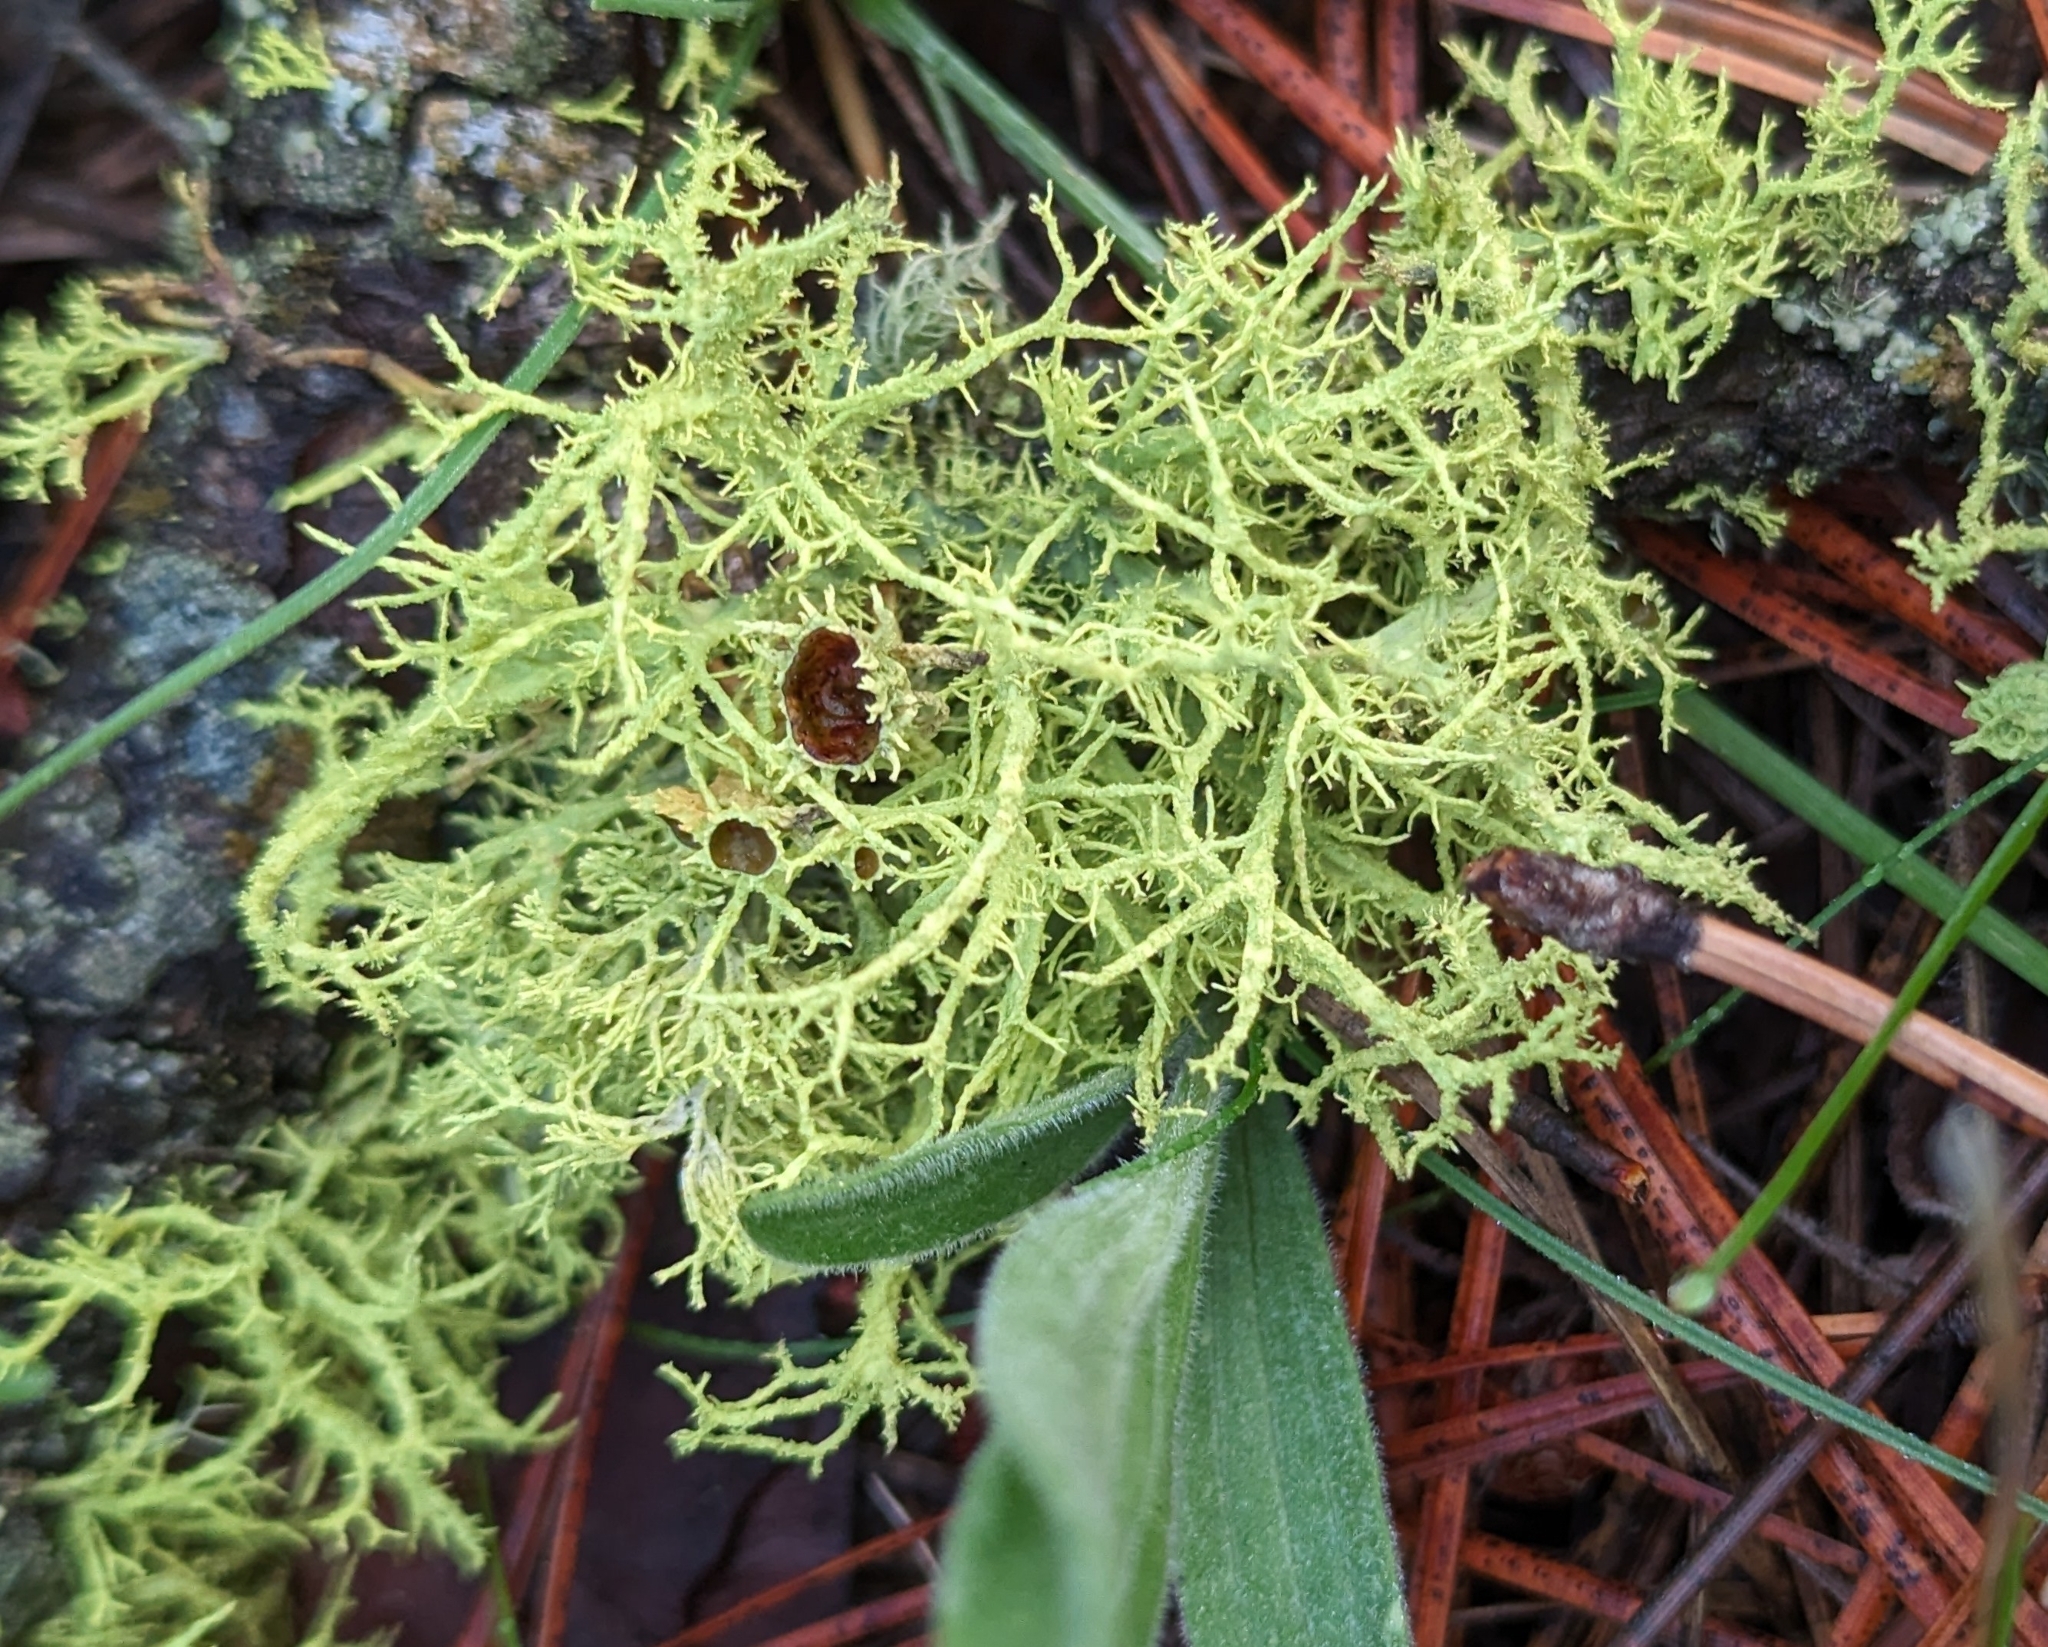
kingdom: Fungi
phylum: Ascomycota
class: Lecanoromycetes
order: Lecanorales
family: Parmeliaceae
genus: Letharia
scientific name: Letharia columbiana
